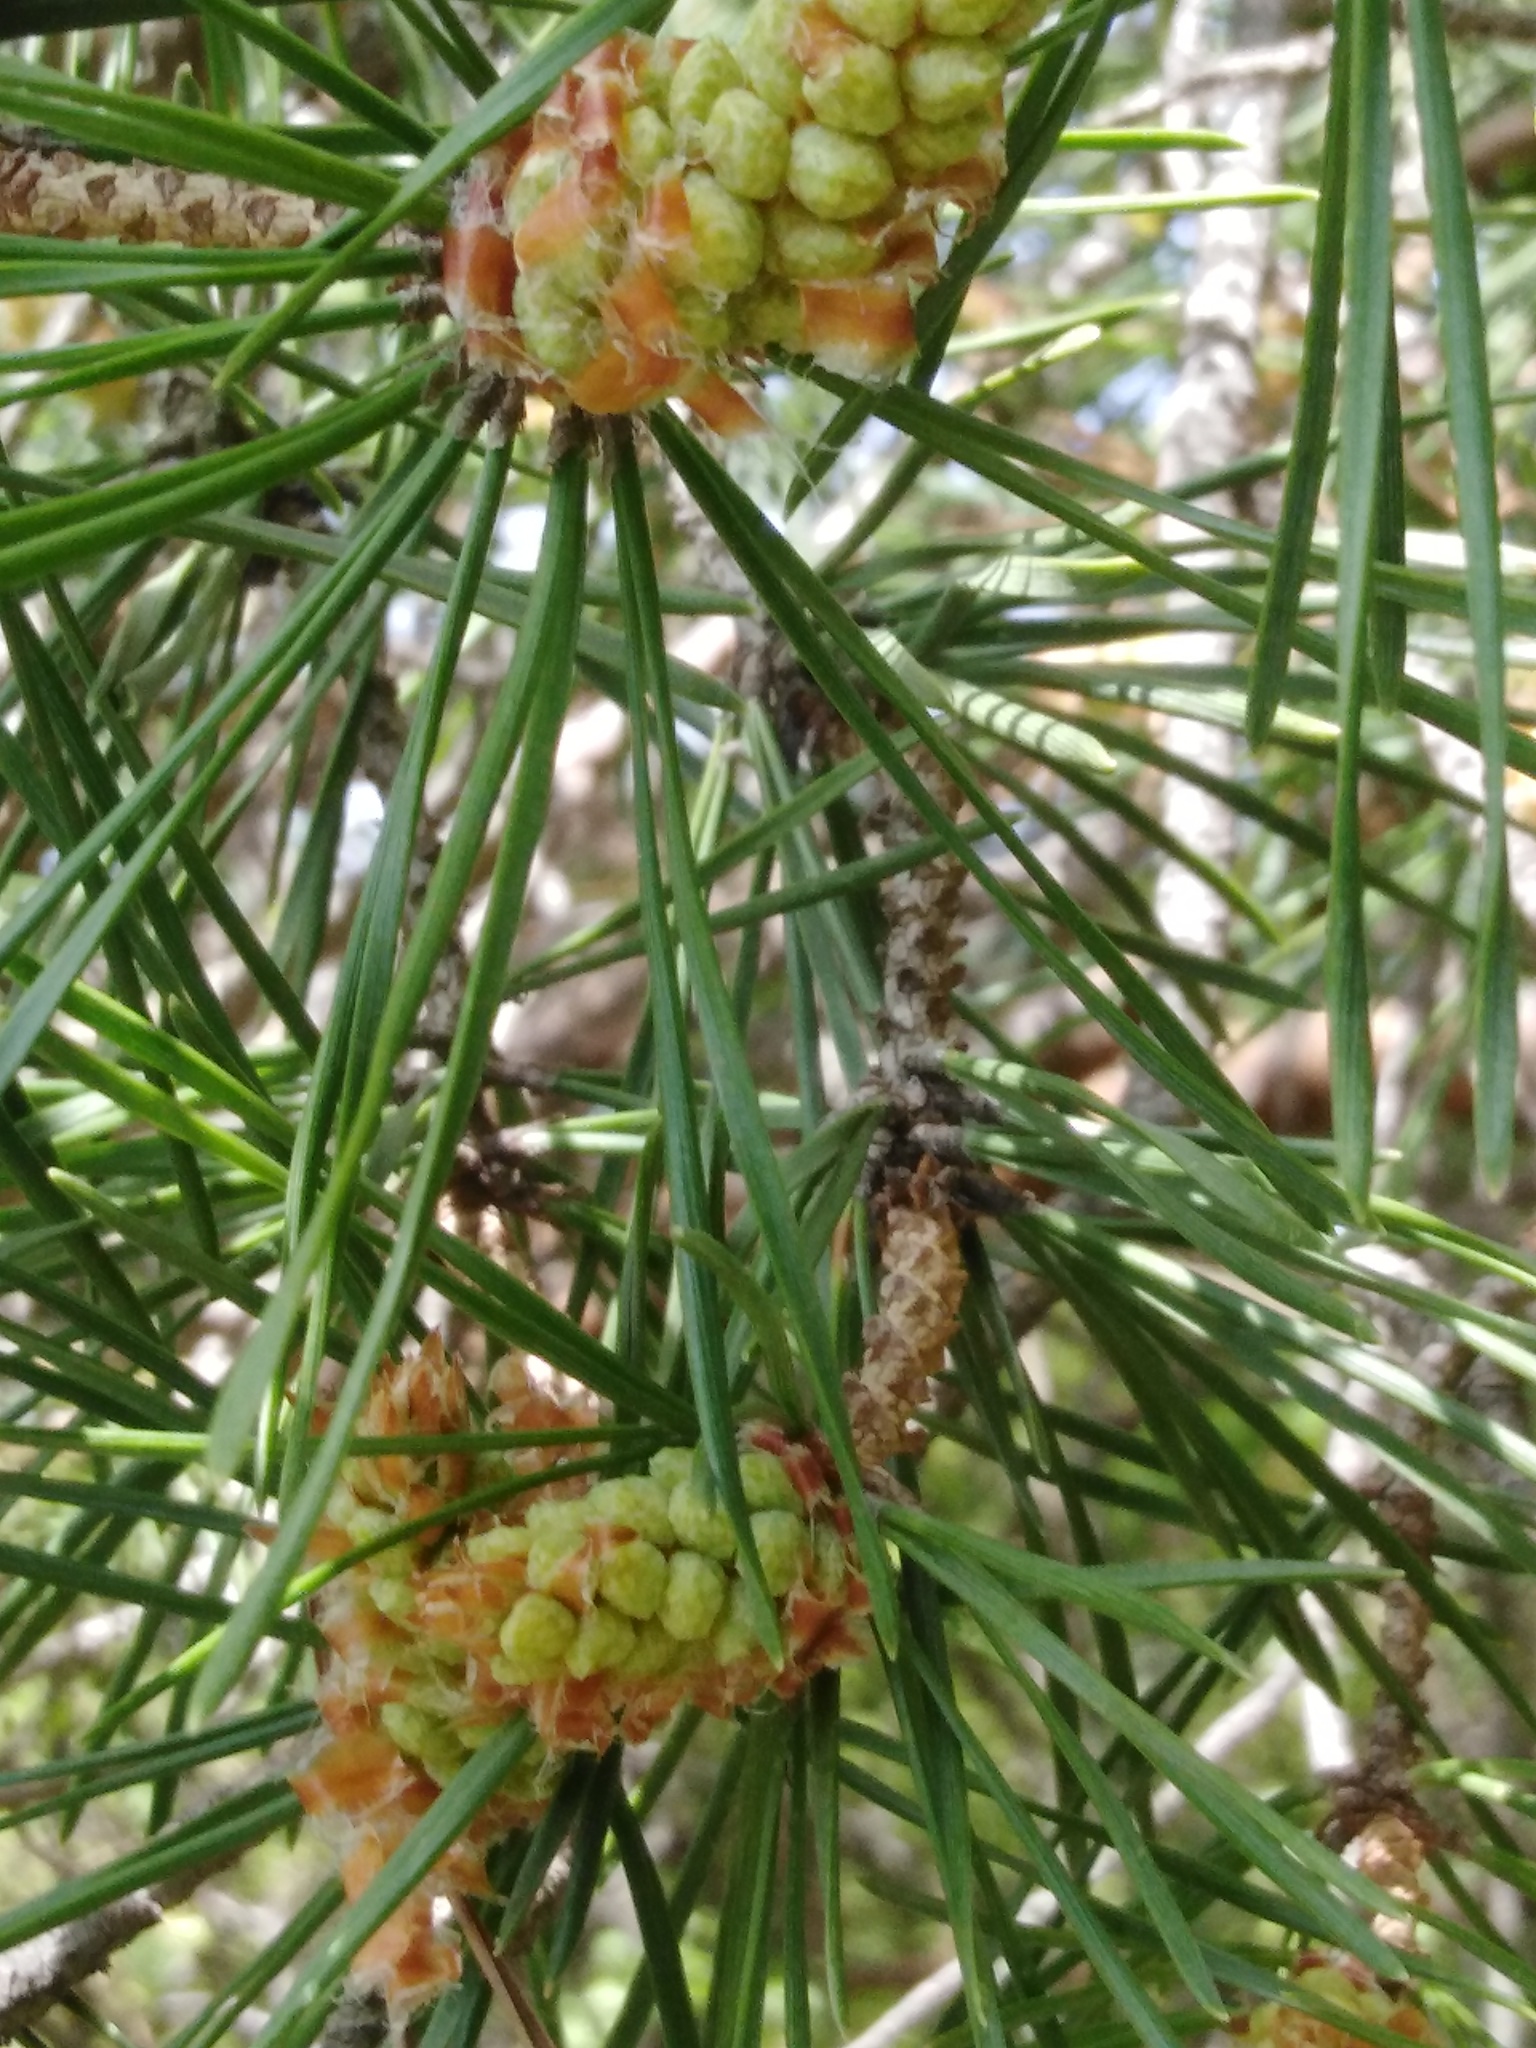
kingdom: Plantae
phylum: Tracheophyta
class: Pinopsida
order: Pinales
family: Pinaceae
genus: Pinus
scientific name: Pinus sylvestris
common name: Scots pine
